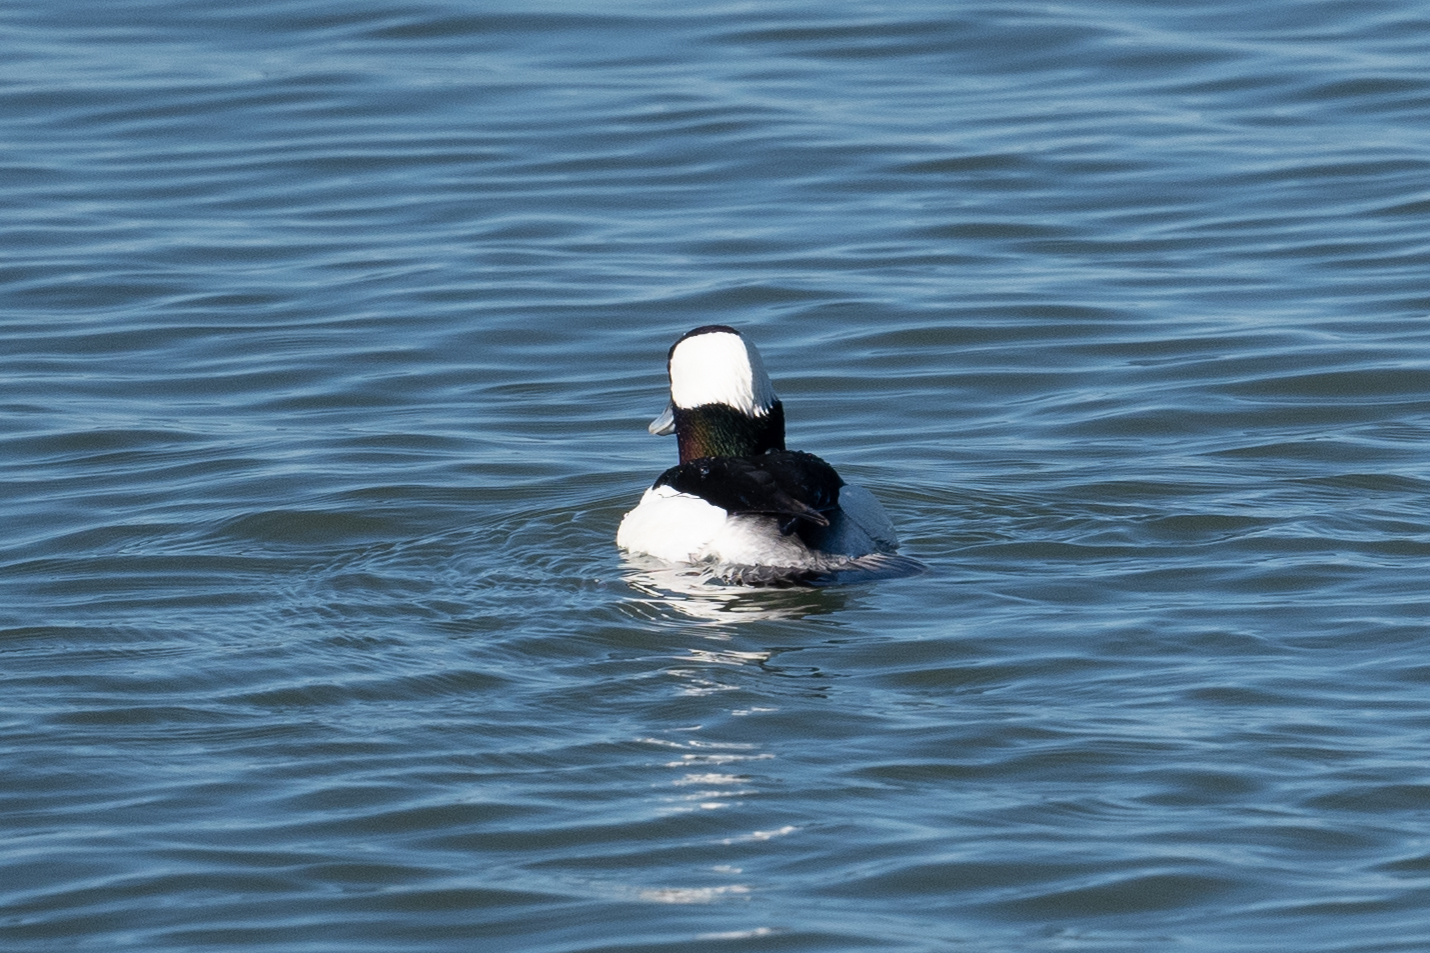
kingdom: Animalia
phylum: Chordata
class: Aves
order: Anseriformes
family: Anatidae
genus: Bucephala
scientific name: Bucephala albeola
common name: Bufflehead
